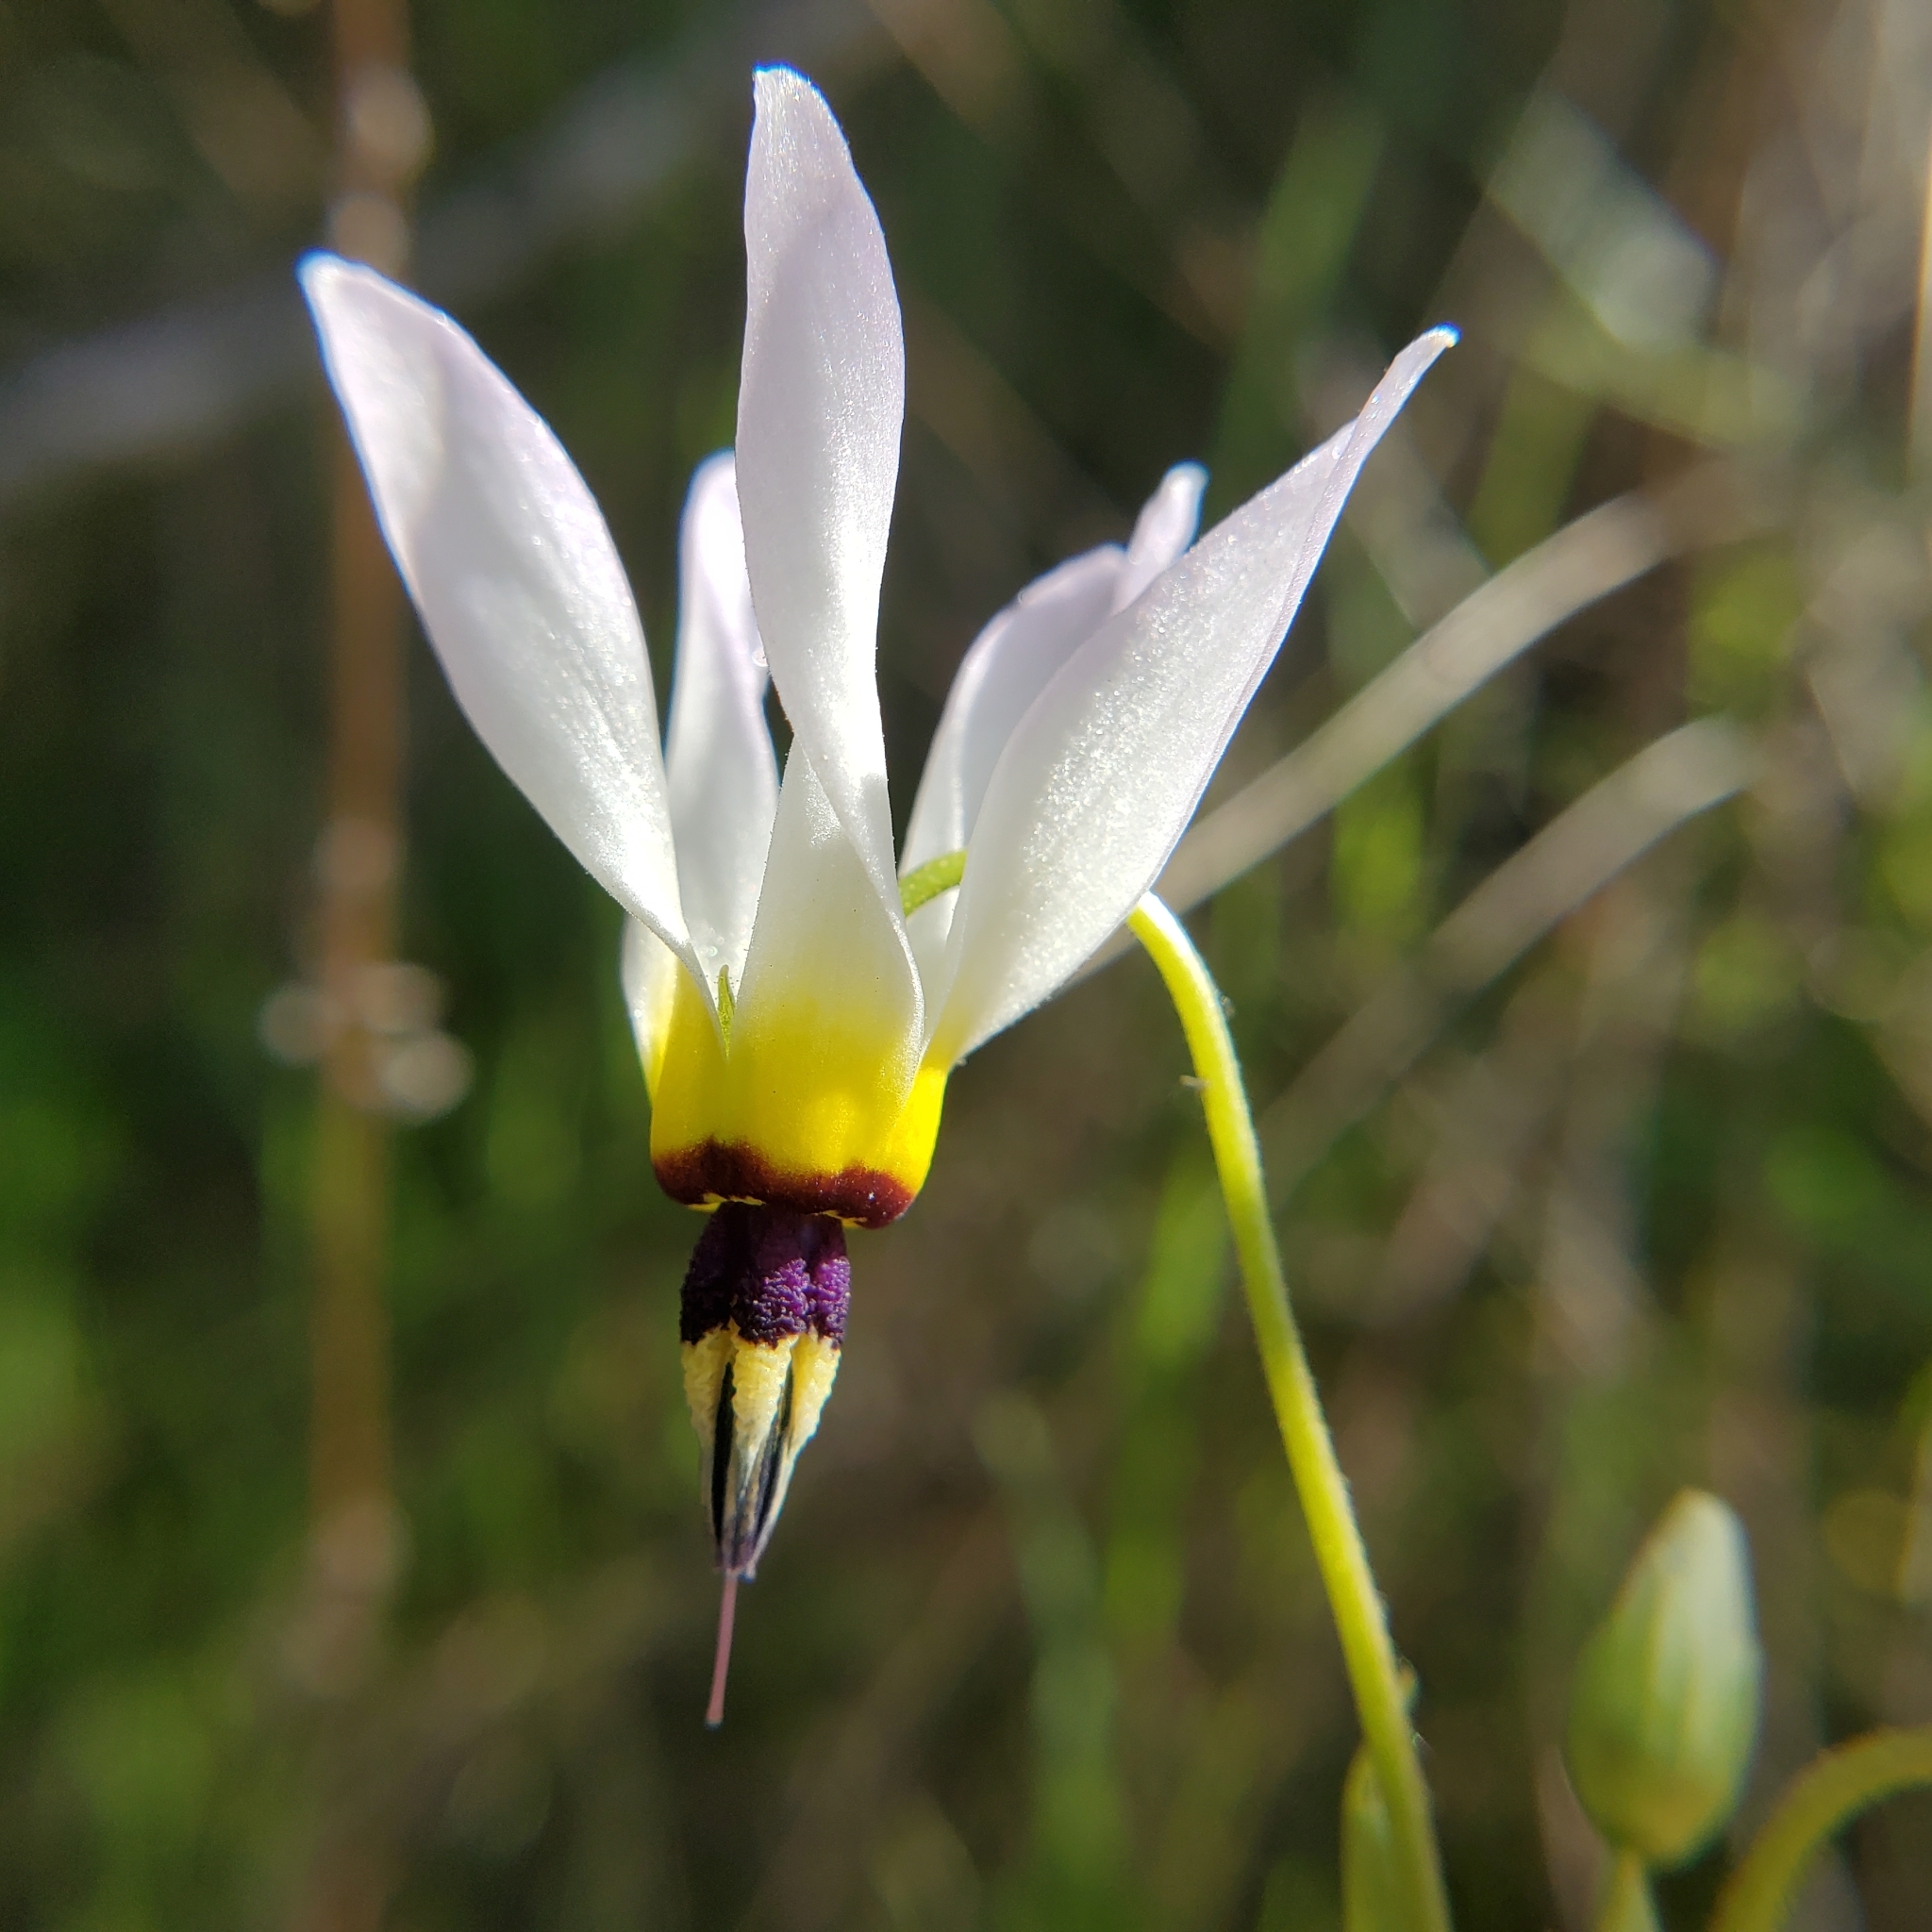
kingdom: Plantae
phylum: Tracheophyta
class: Magnoliopsida
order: Ericales
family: Primulaceae
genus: Dodecatheon
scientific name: Dodecatheon clevelandii
